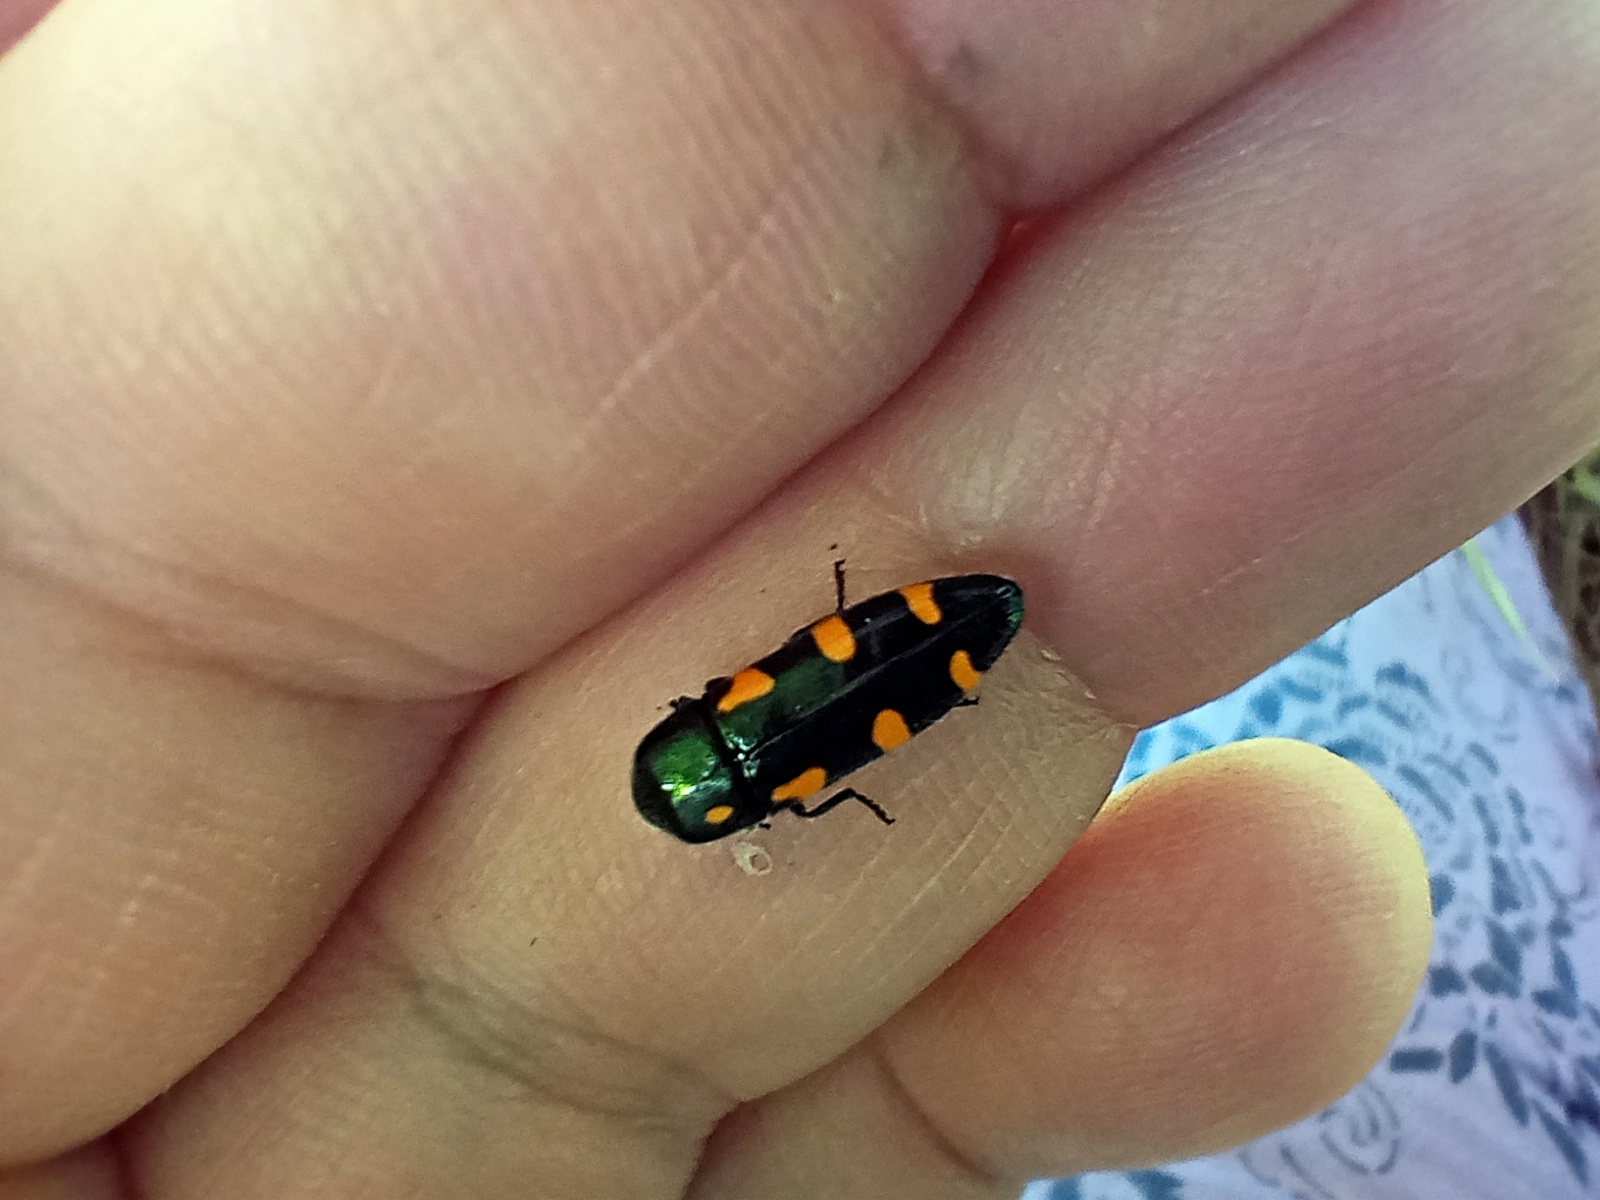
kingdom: Animalia
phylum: Arthropoda
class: Insecta
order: Coleoptera
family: Buprestidae
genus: Ptosima
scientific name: Ptosima undecimmaculata
